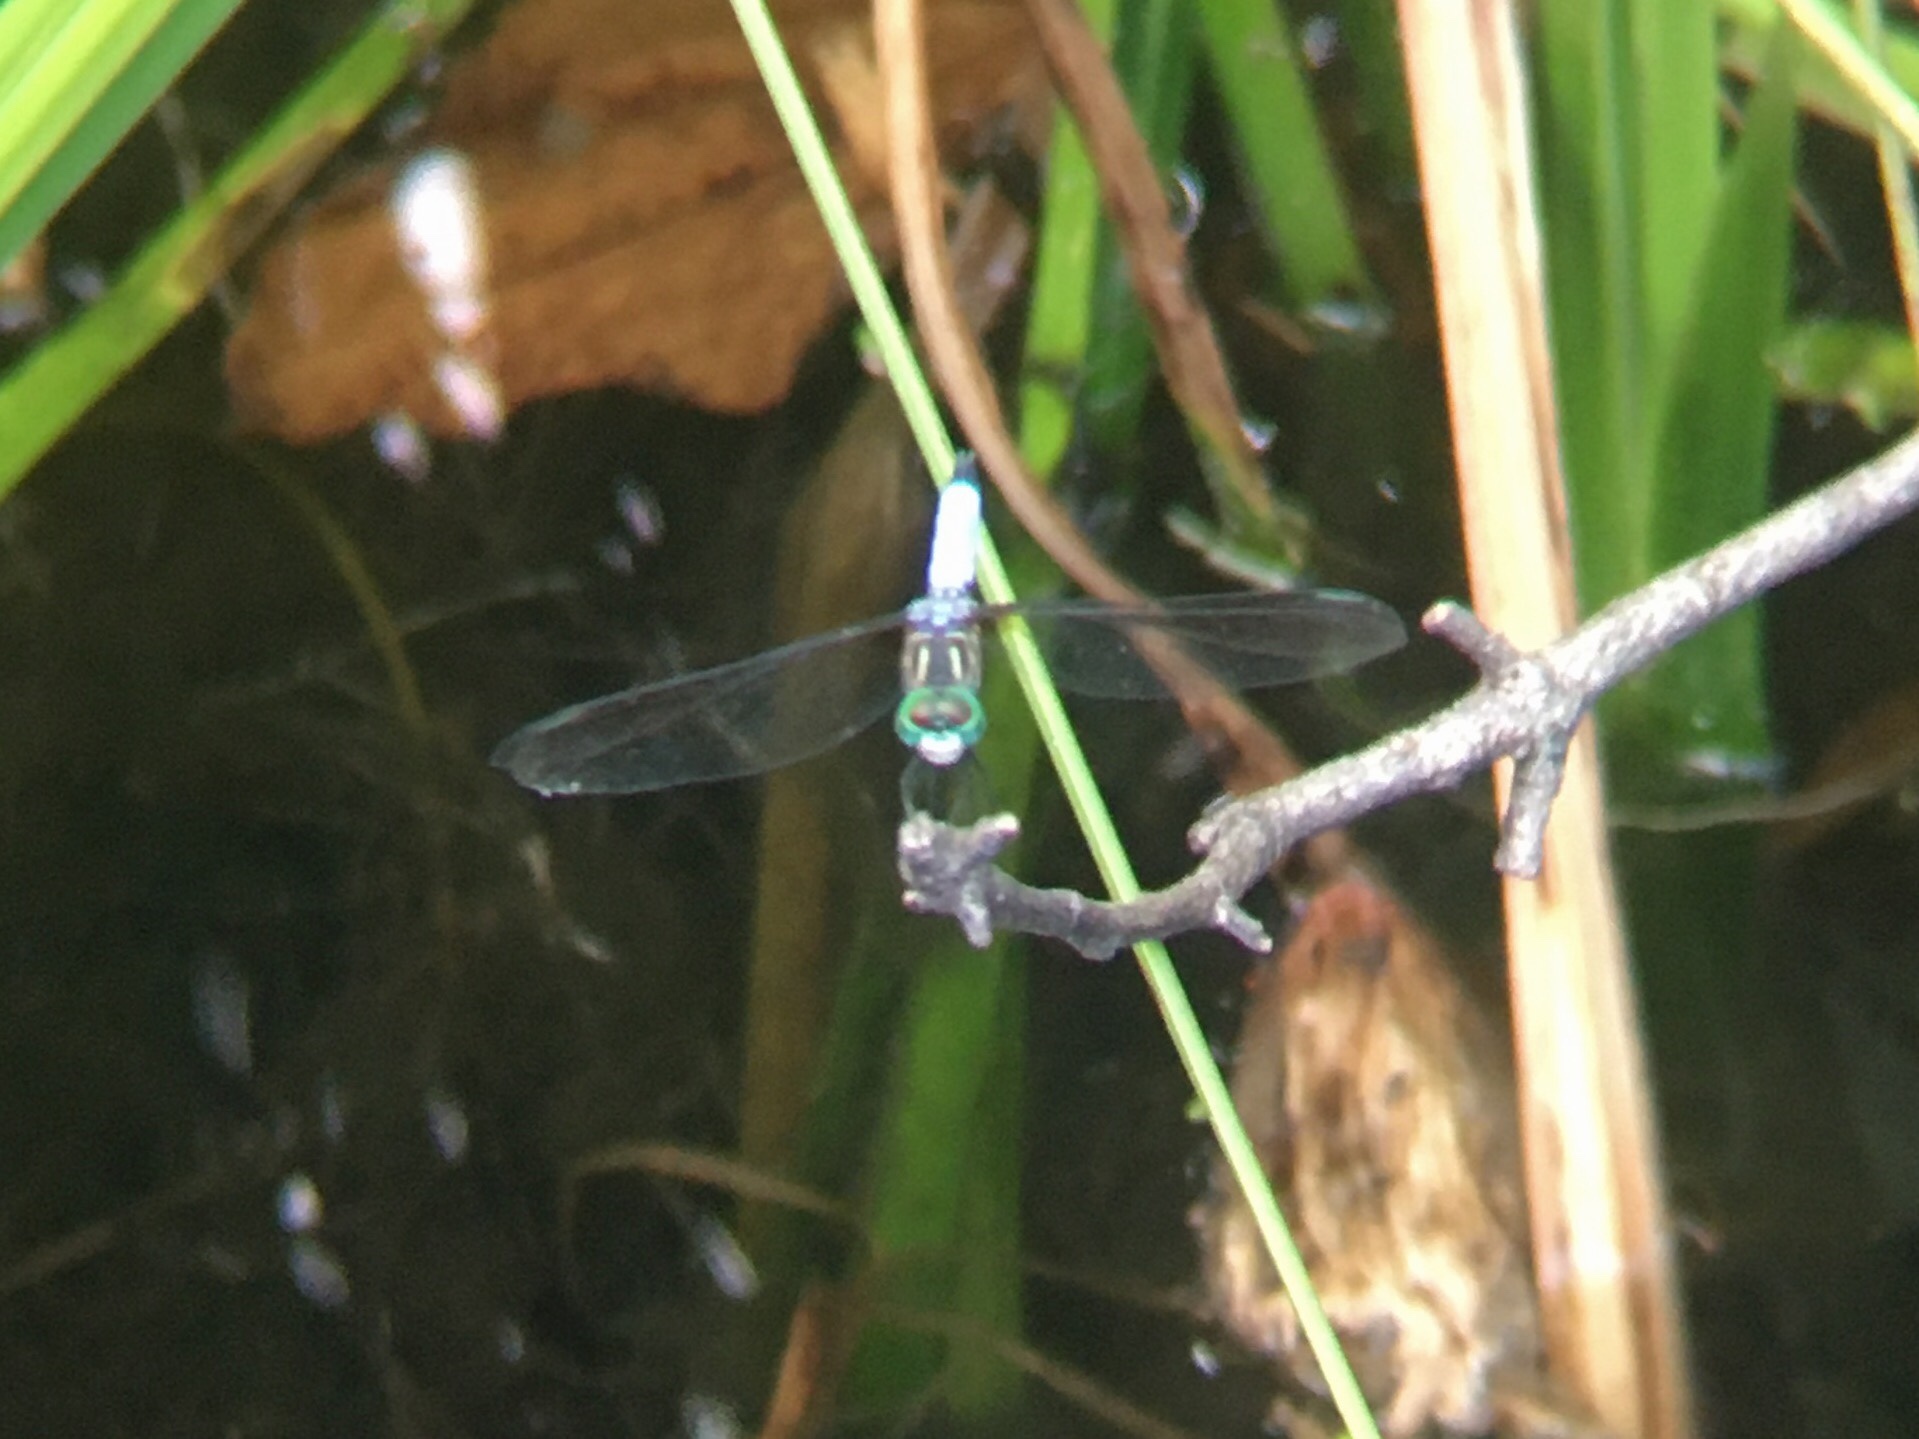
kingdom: Animalia
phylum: Arthropoda
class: Insecta
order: Odonata
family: Libellulidae
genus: Pachydiplax
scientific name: Pachydiplax longipennis
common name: Blue dasher
